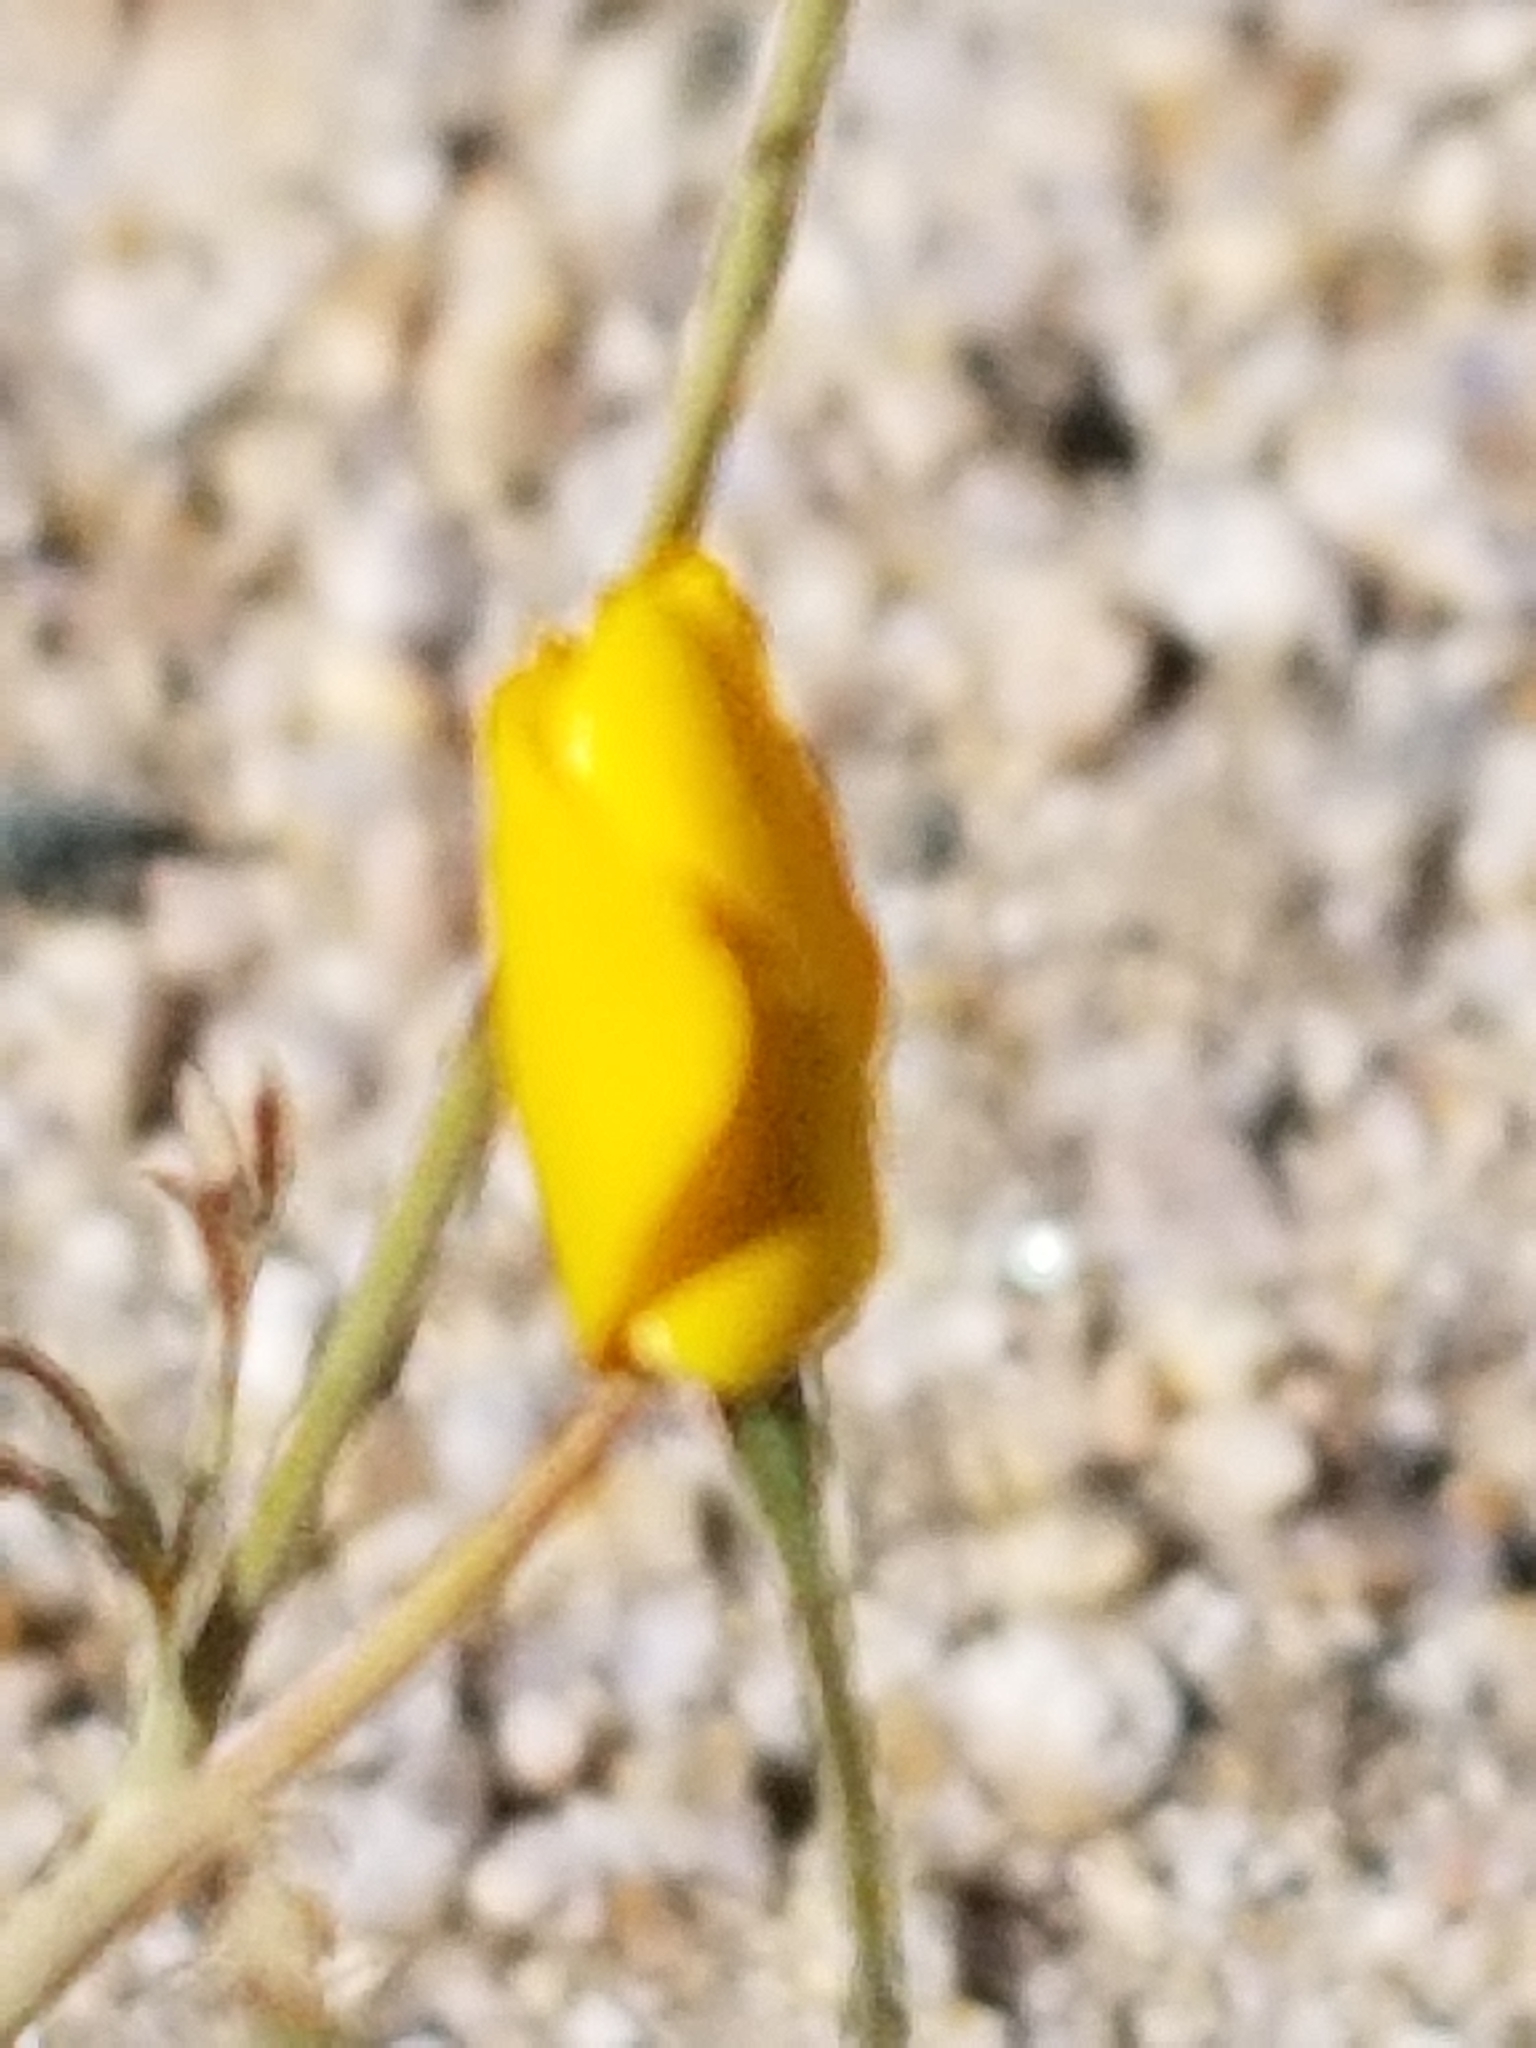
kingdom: Plantae
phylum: Tracheophyta
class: Magnoliopsida
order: Ranunculales
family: Papaveraceae
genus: Eschscholzia
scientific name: Eschscholzia parishii
